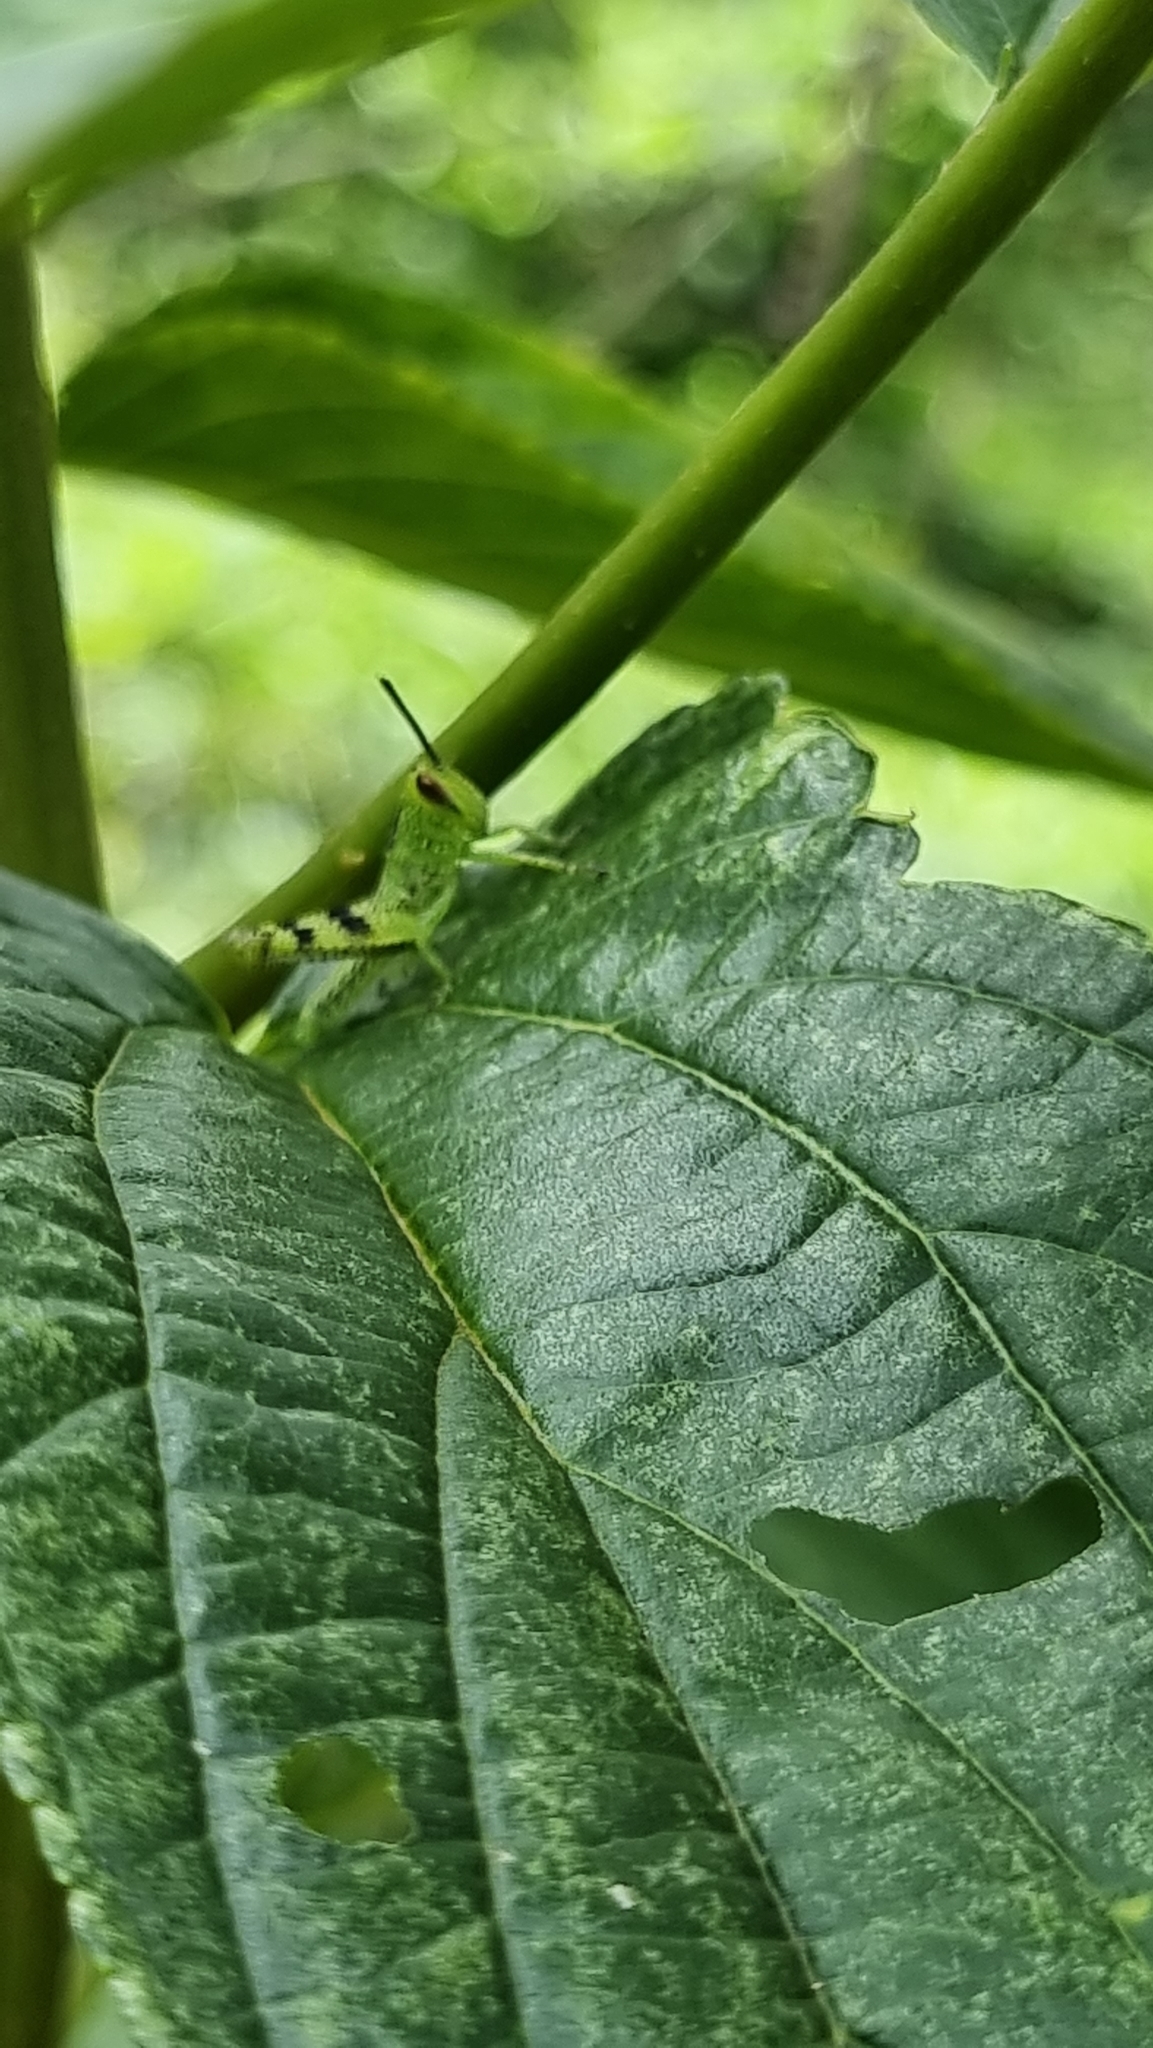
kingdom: Animalia
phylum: Arthropoda
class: Insecta
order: Orthoptera
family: Acrididae
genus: Valanga
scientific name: Valanga irregularis
